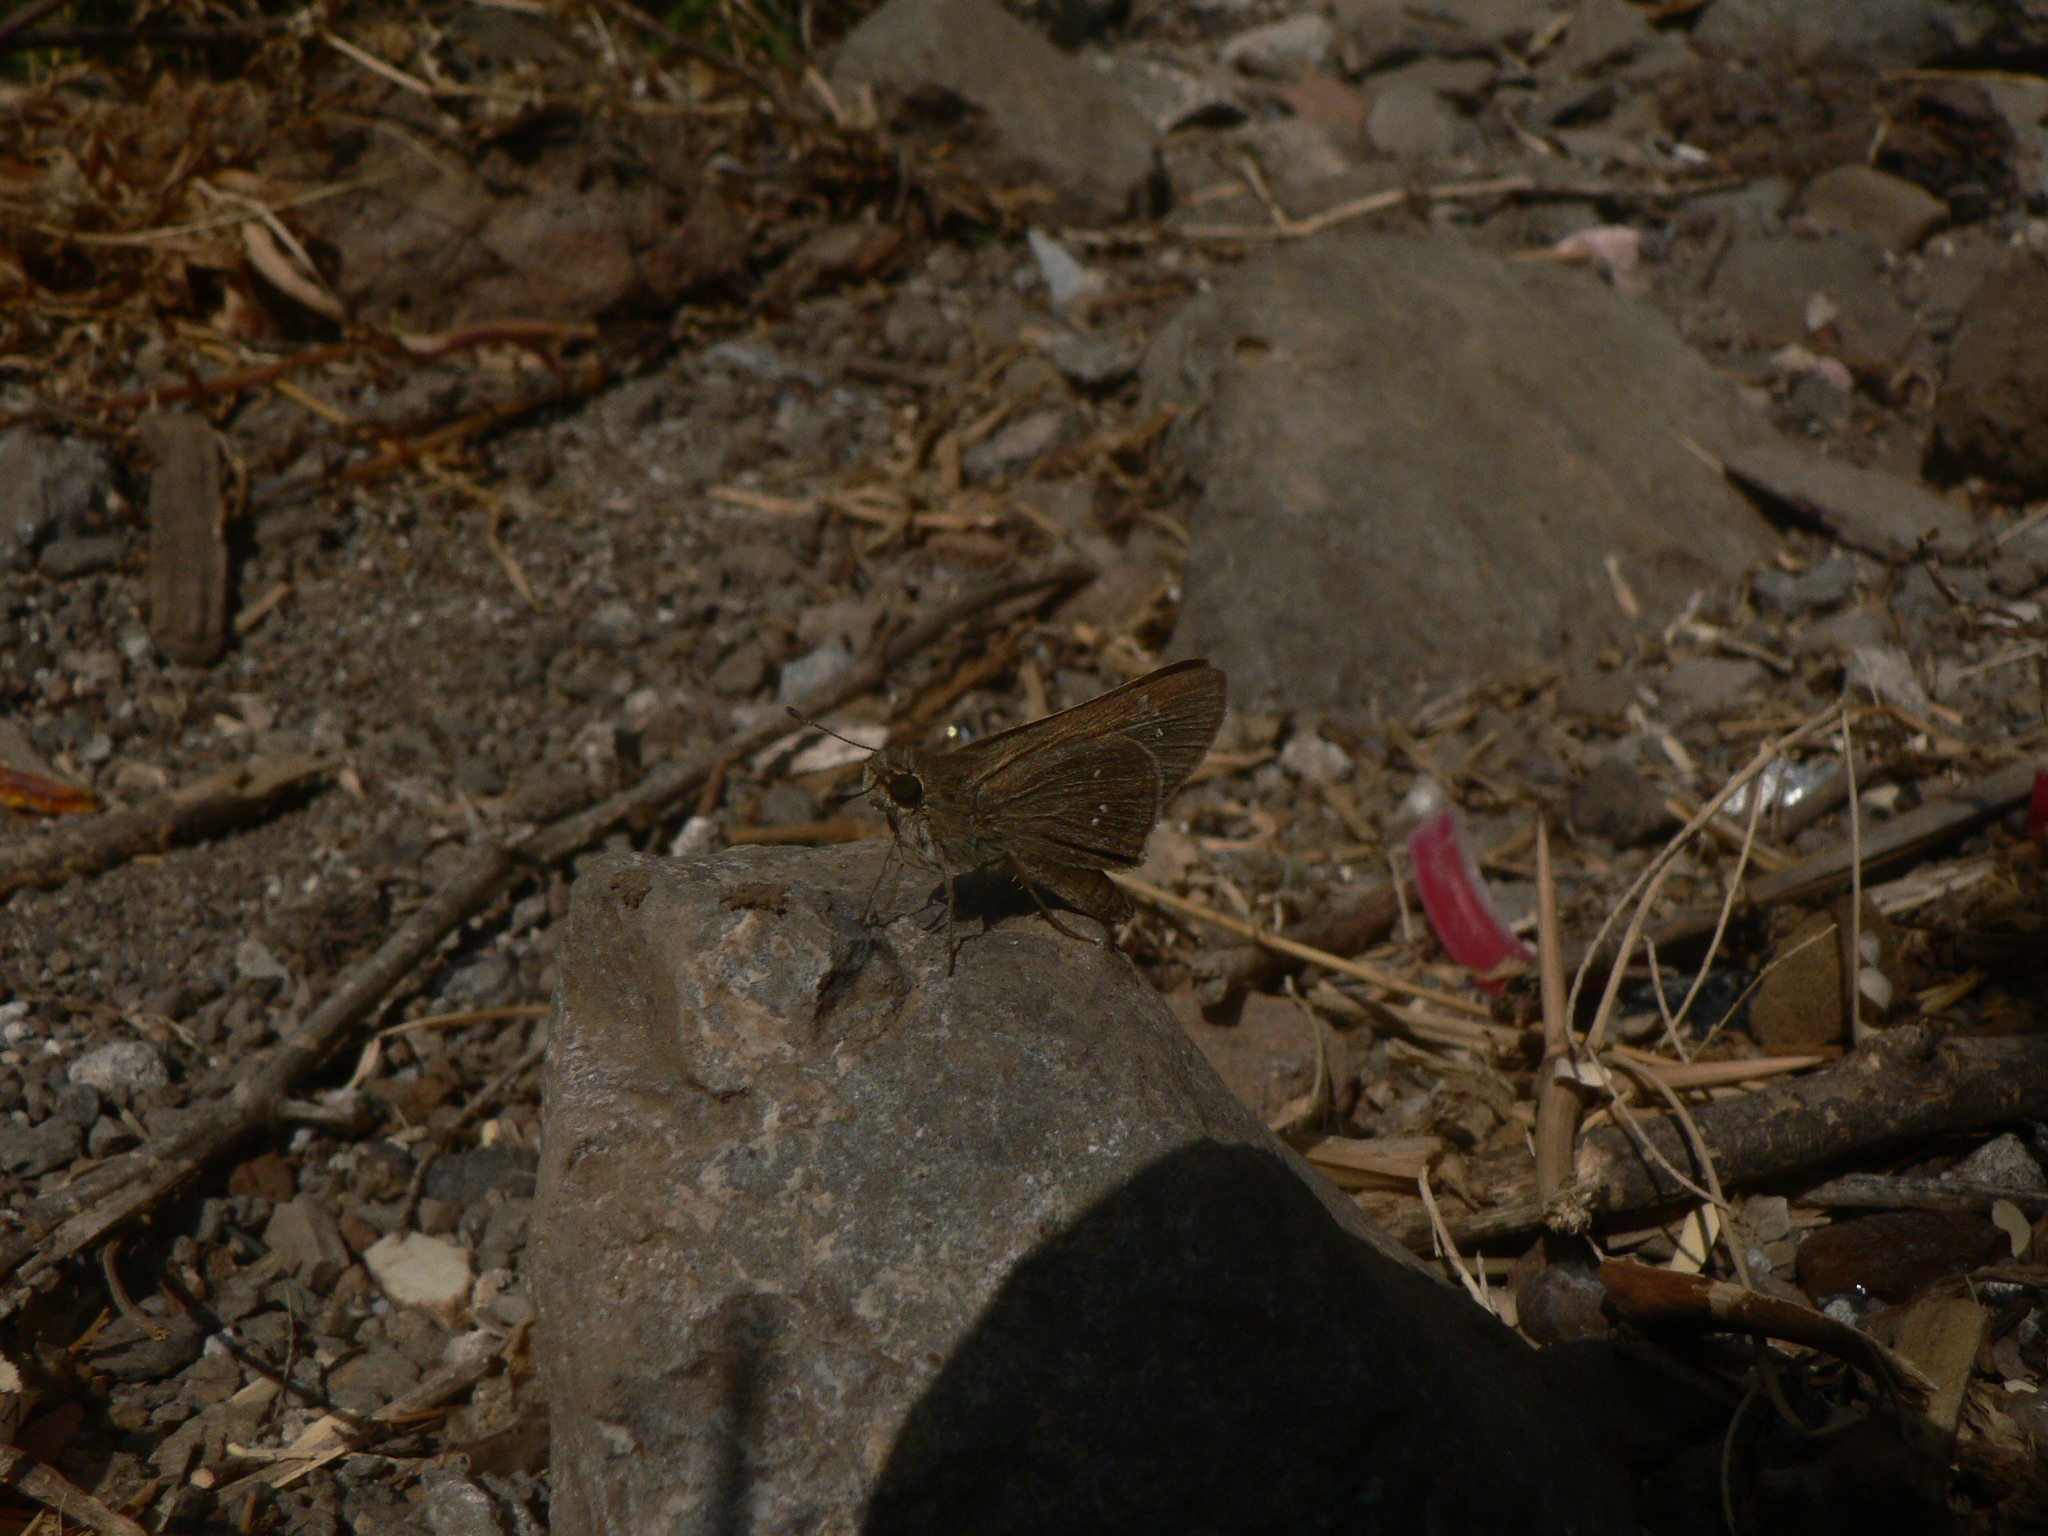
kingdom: Animalia
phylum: Arthropoda
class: Insecta
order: Lepidoptera
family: Hesperiidae
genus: Borbo
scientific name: Borbo borbonica
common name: Olive-haired swift
